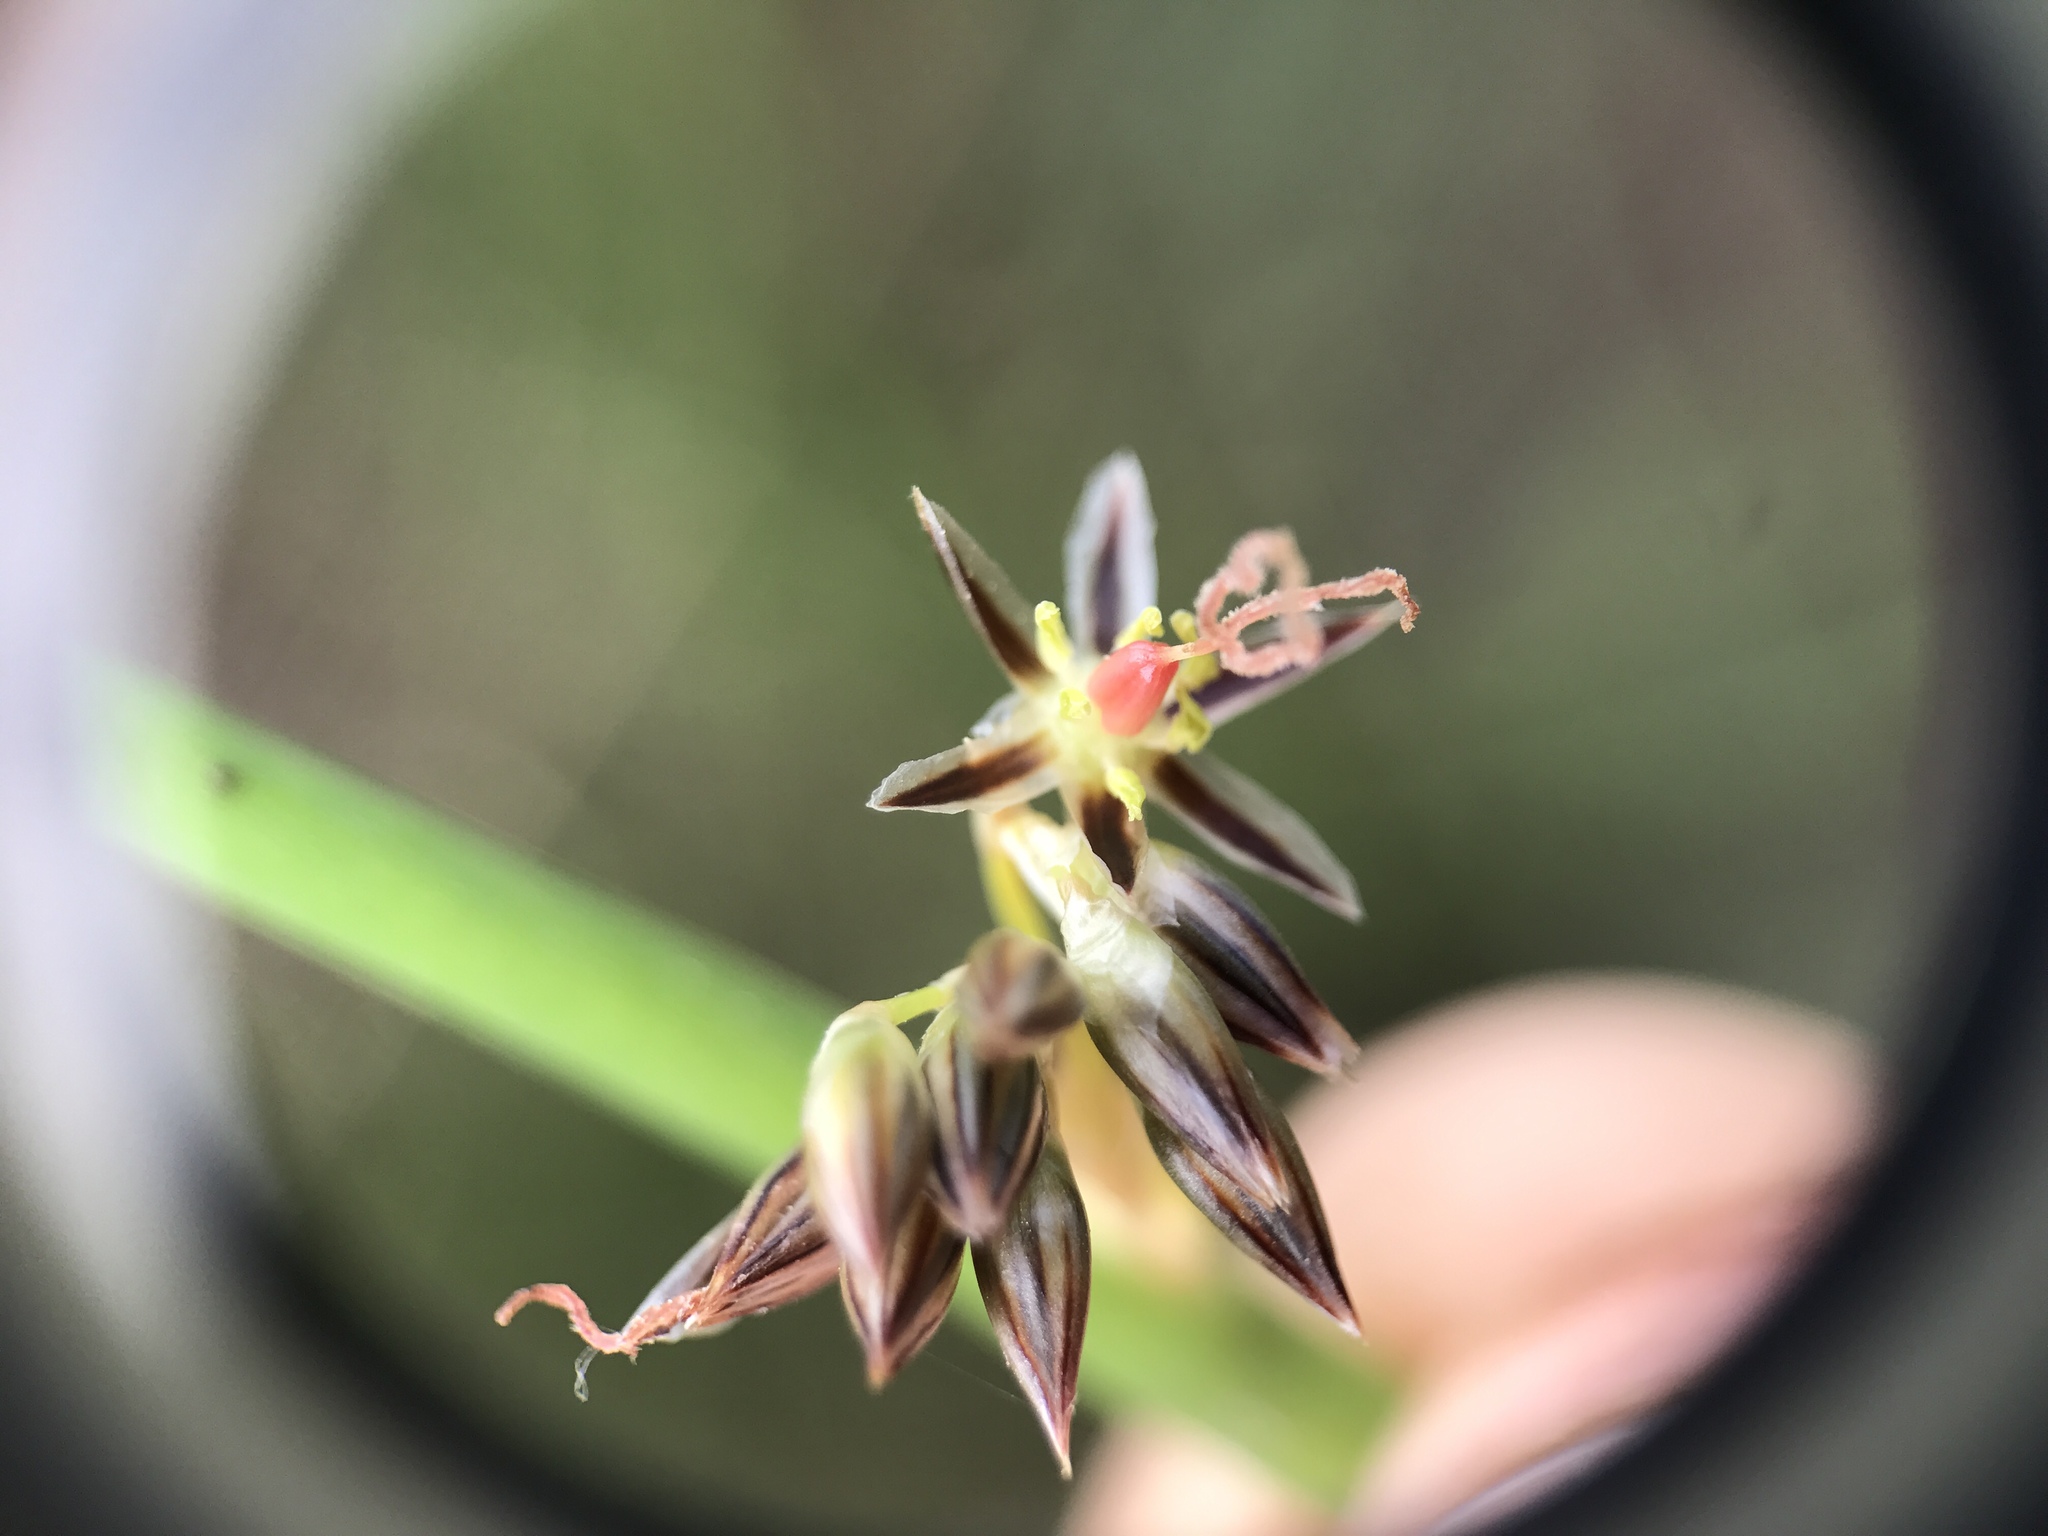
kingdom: Plantae
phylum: Tracheophyta
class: Liliopsida
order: Poales
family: Juncaceae
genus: Juncus
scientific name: Juncus balticus
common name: Baltic rush
